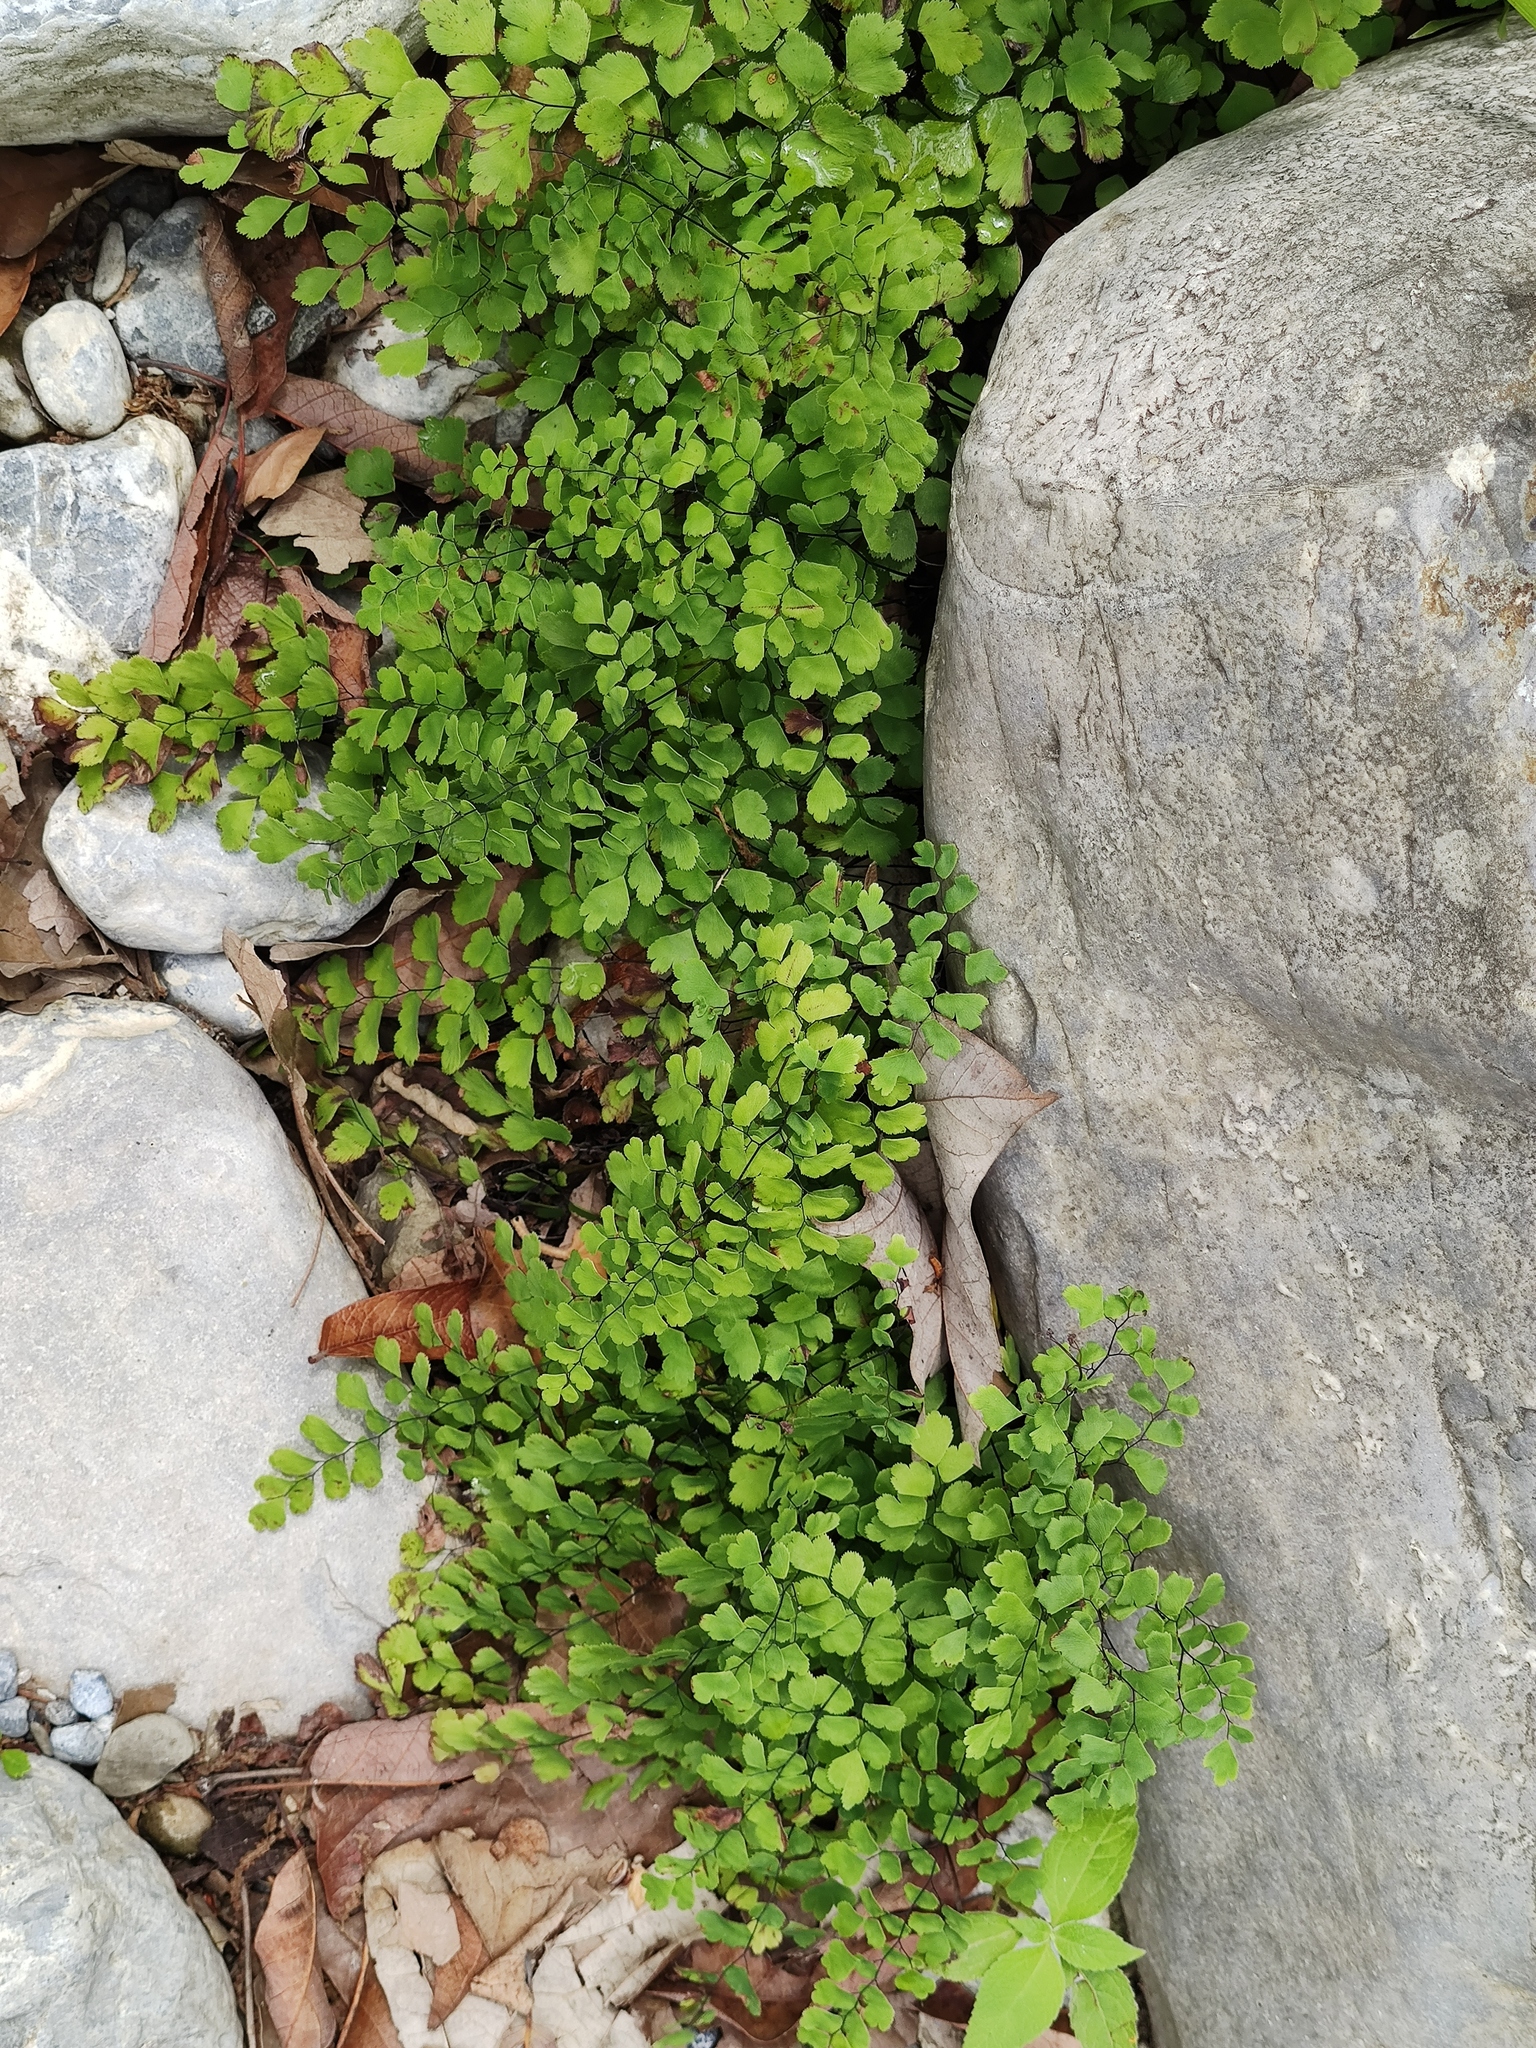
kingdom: Plantae
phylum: Tracheophyta
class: Polypodiopsida
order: Polypodiales
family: Pteridaceae
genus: Adiantum
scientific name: Adiantum capillus-veneris
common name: Maidenhair fern
